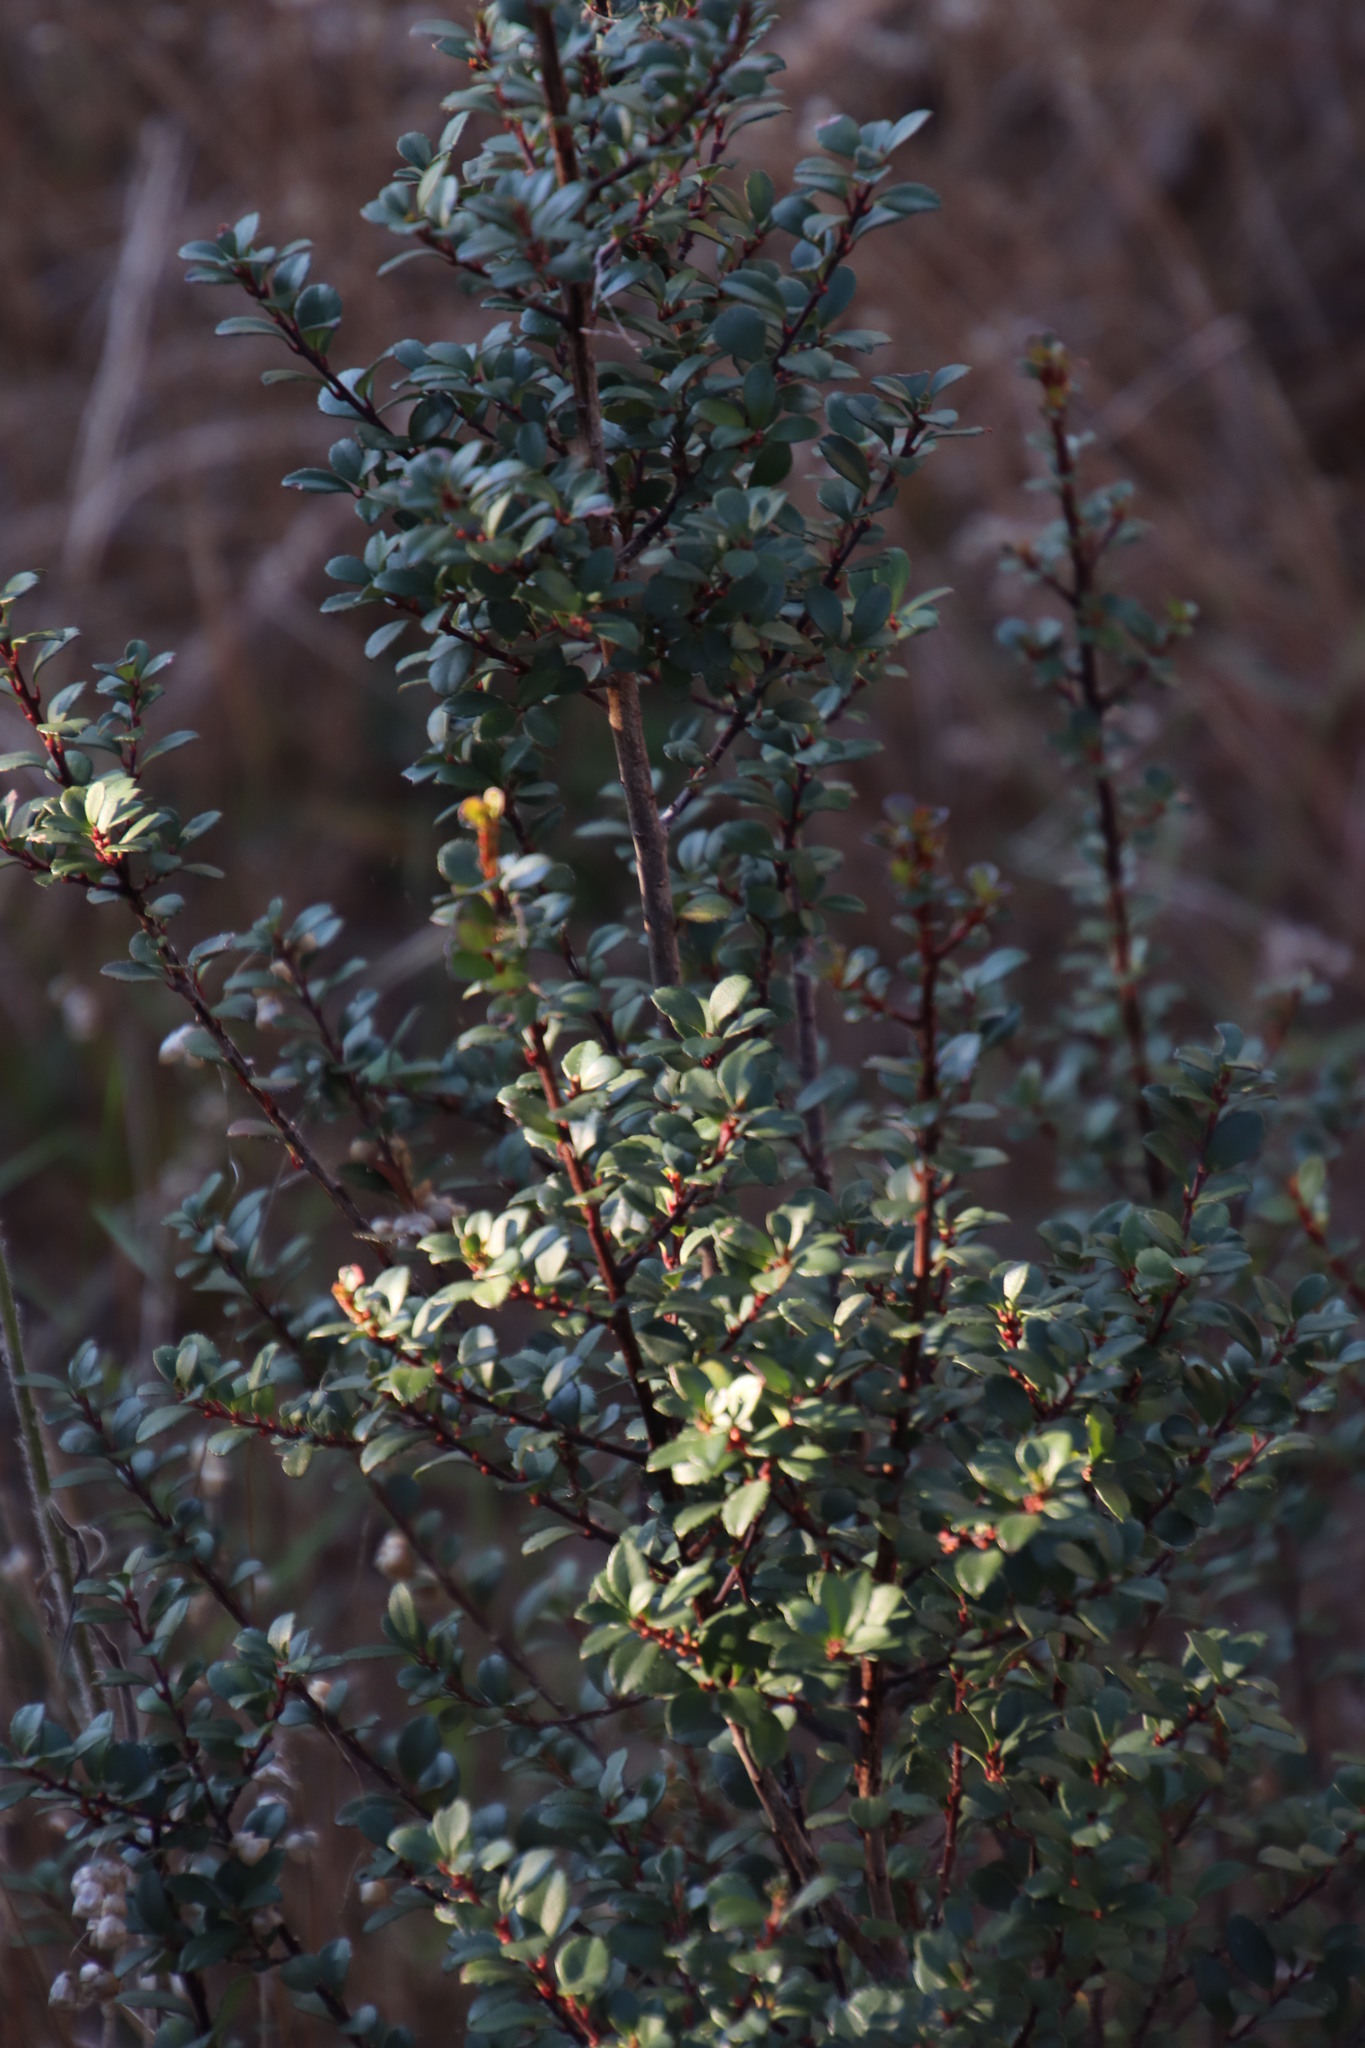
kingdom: Plantae
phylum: Tracheophyta
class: Magnoliopsida
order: Ericales
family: Primulaceae
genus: Myrsine
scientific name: Myrsine africana
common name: African-boxwood
